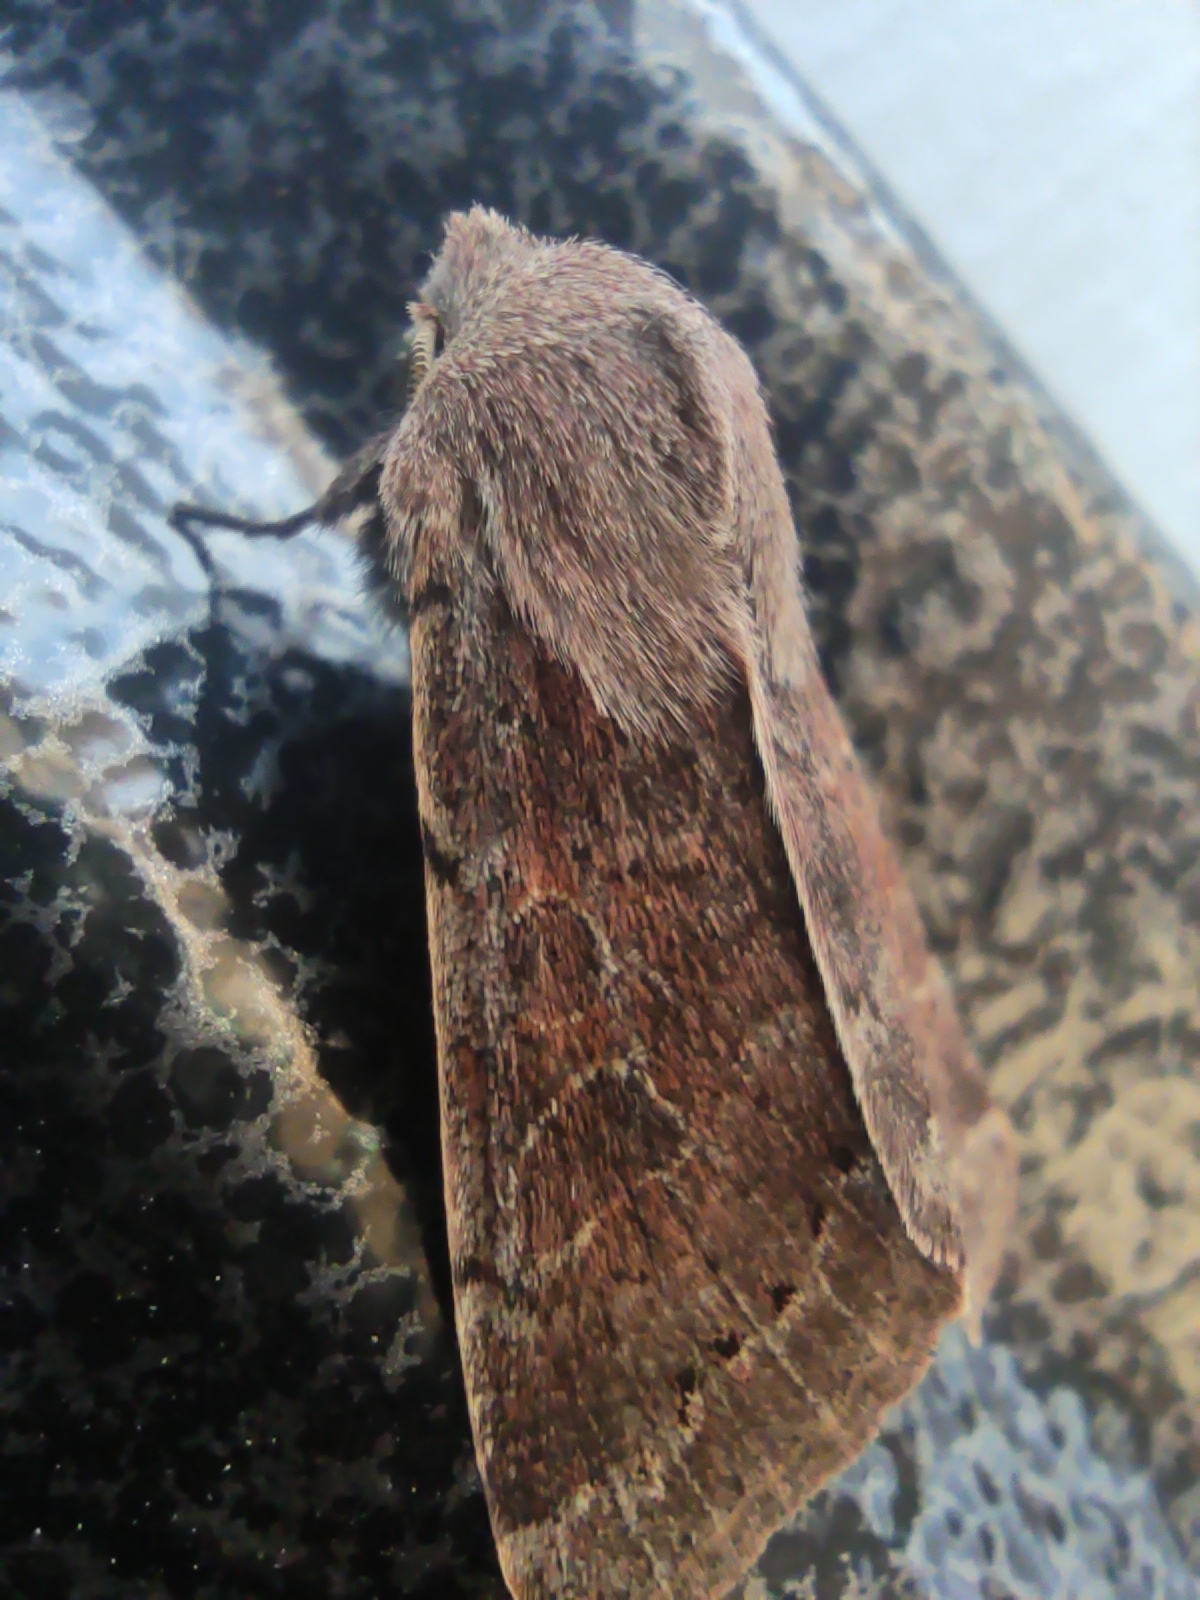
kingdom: Animalia
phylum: Arthropoda
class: Insecta
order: Lepidoptera
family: Noctuidae
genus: Orthosia
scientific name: Orthosia populeti
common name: Lead-coloured drab
